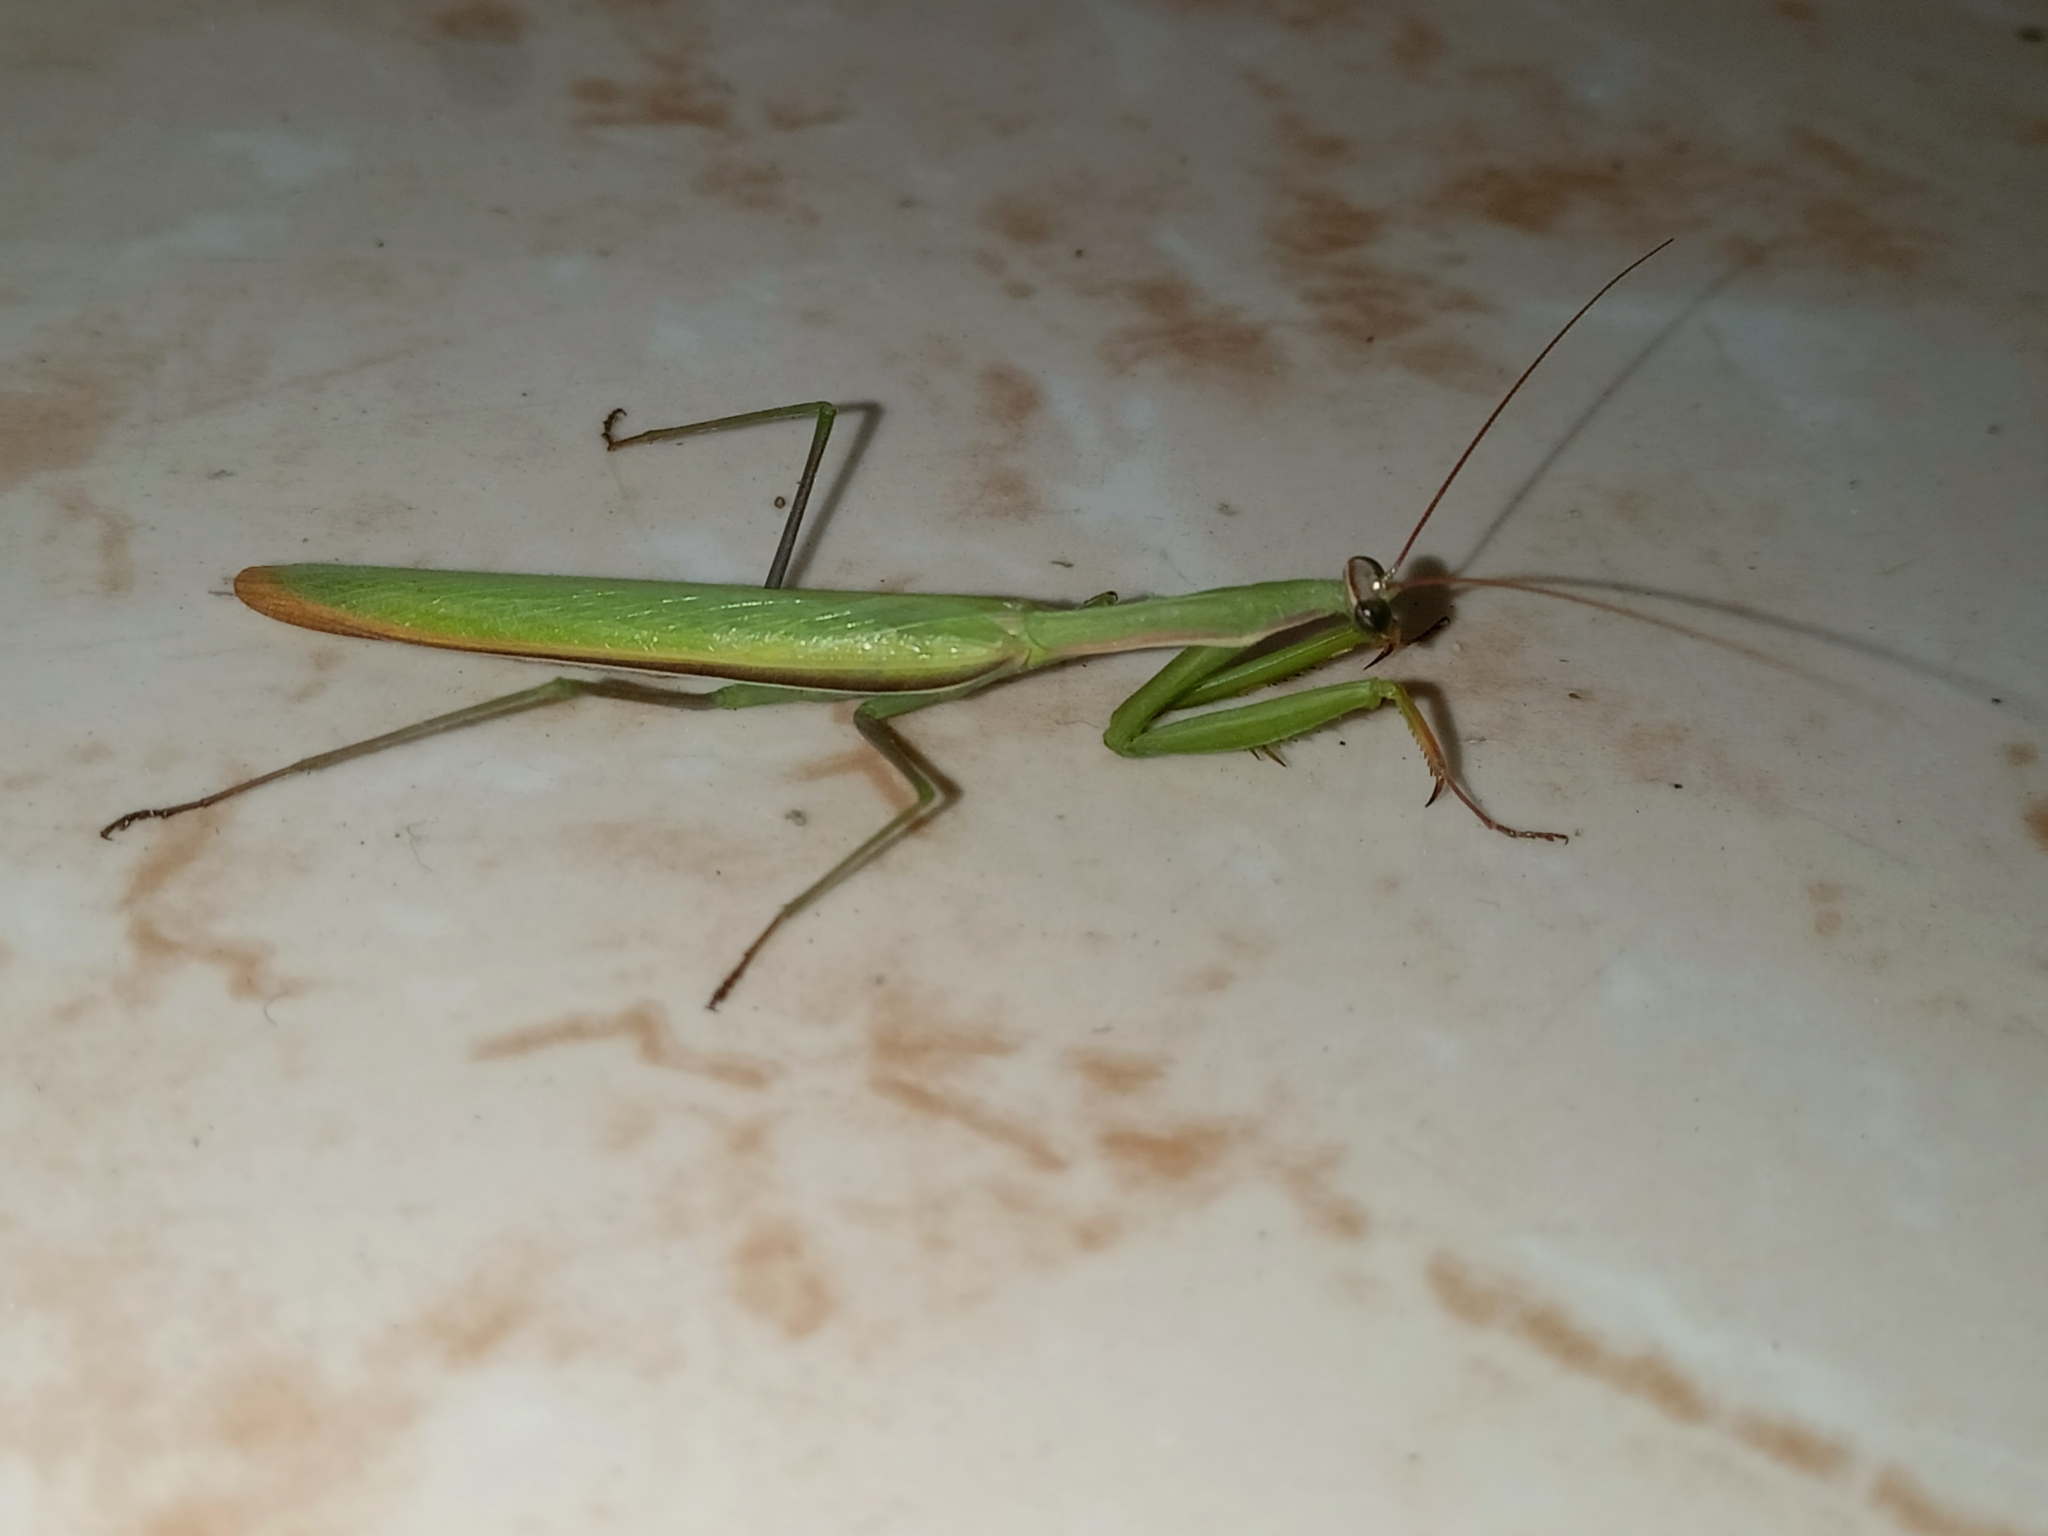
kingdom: Animalia
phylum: Arthropoda
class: Insecta
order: Mantodea
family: Mantidae
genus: Mantis
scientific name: Mantis religiosa
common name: Praying mantis
